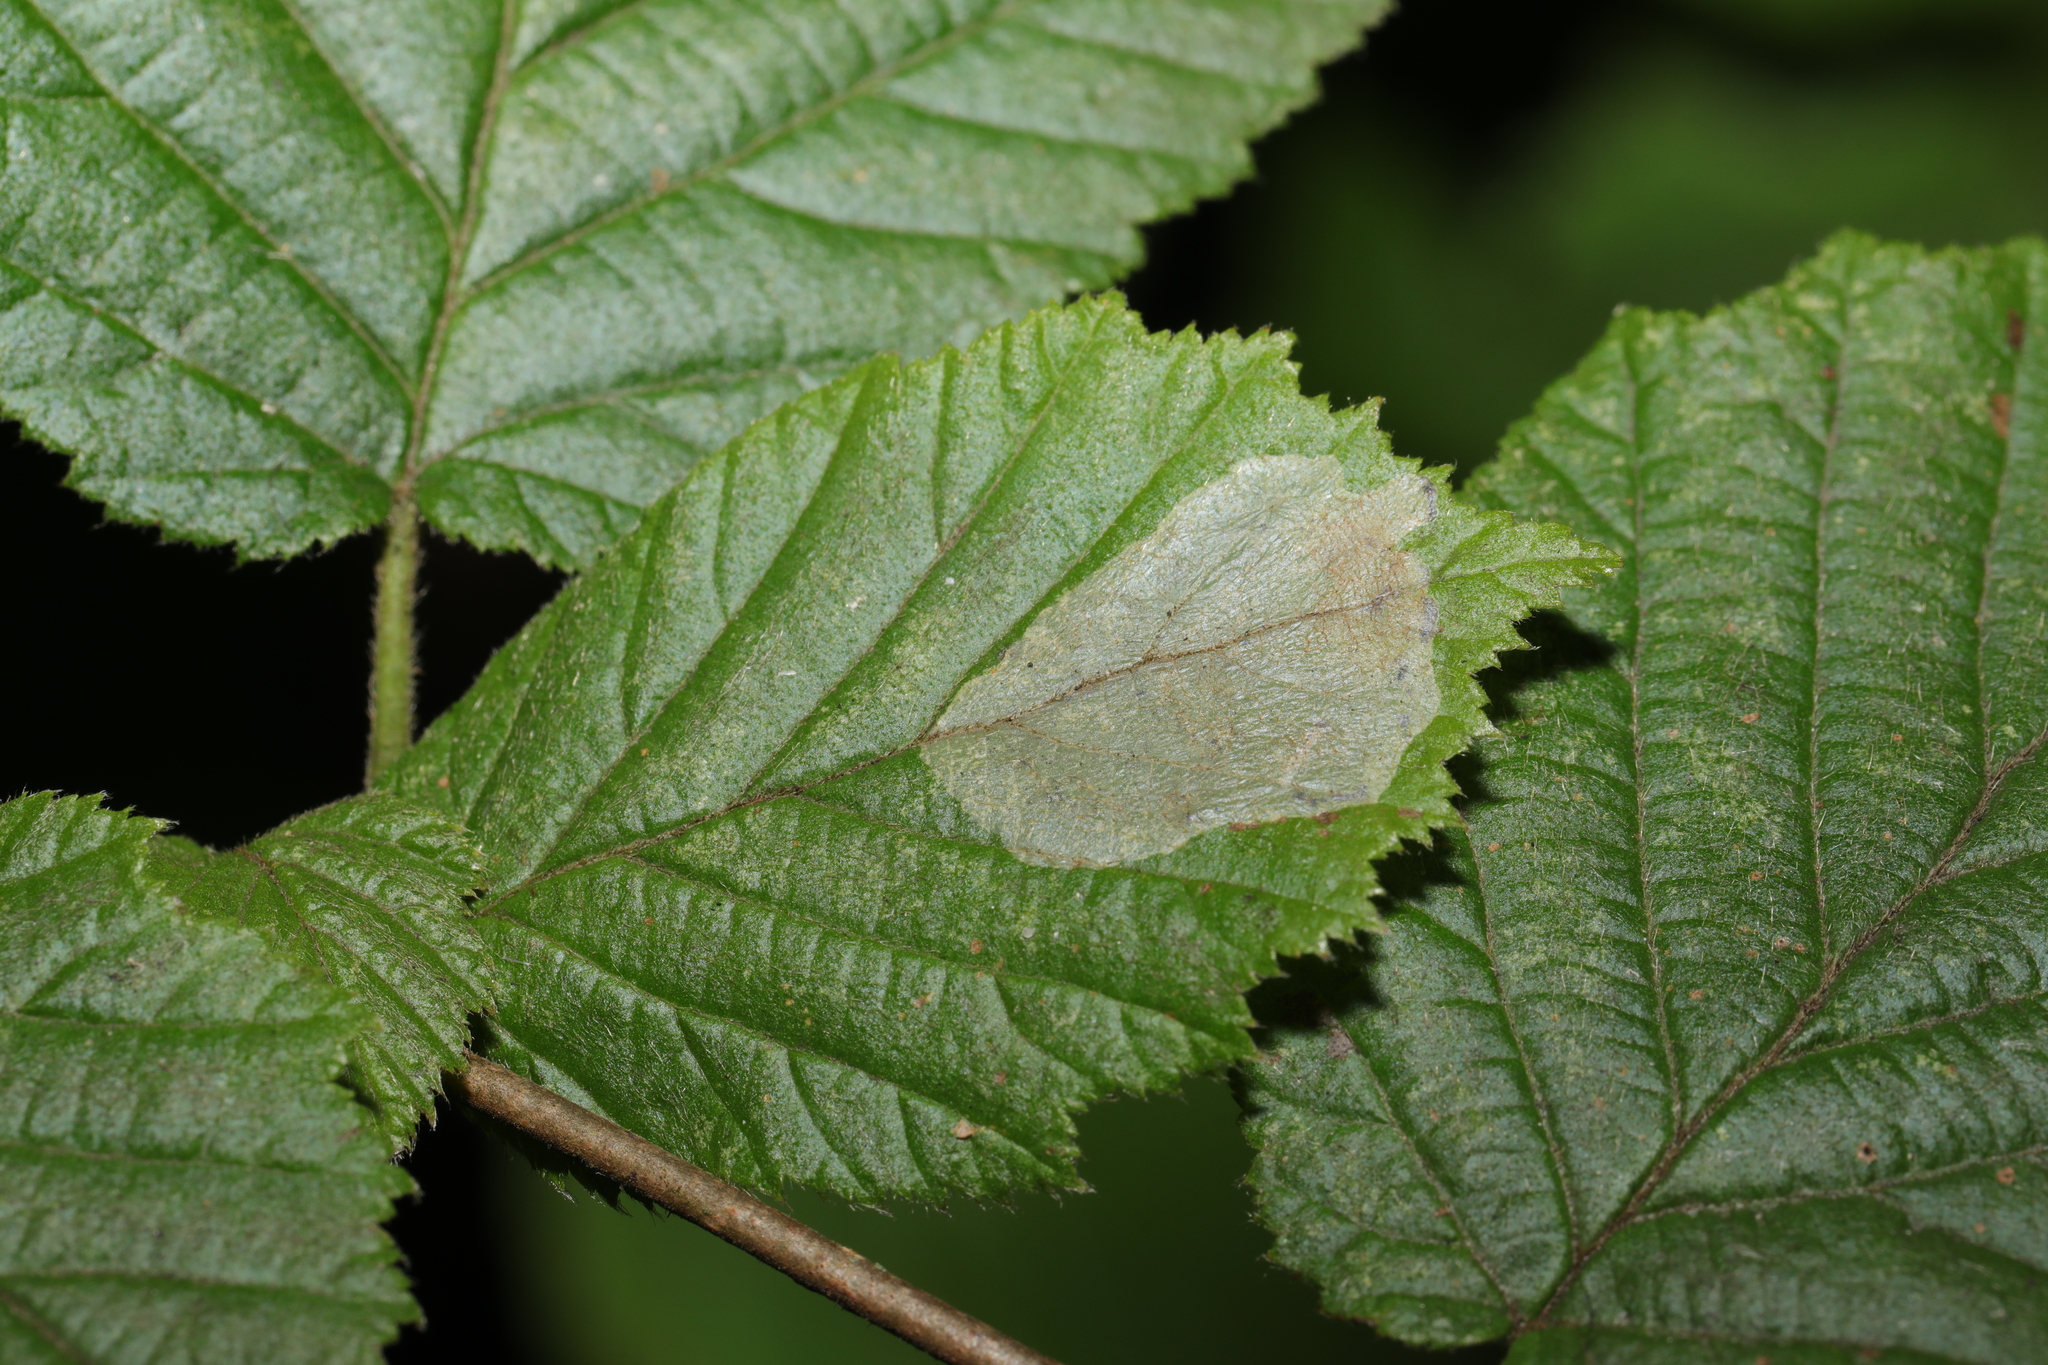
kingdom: Animalia
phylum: Arthropoda
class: Insecta
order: Lepidoptera
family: Gracillariidae
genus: Phyllonorycter
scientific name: Phyllonorycter coryli
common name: Nut-leaf blister moth
